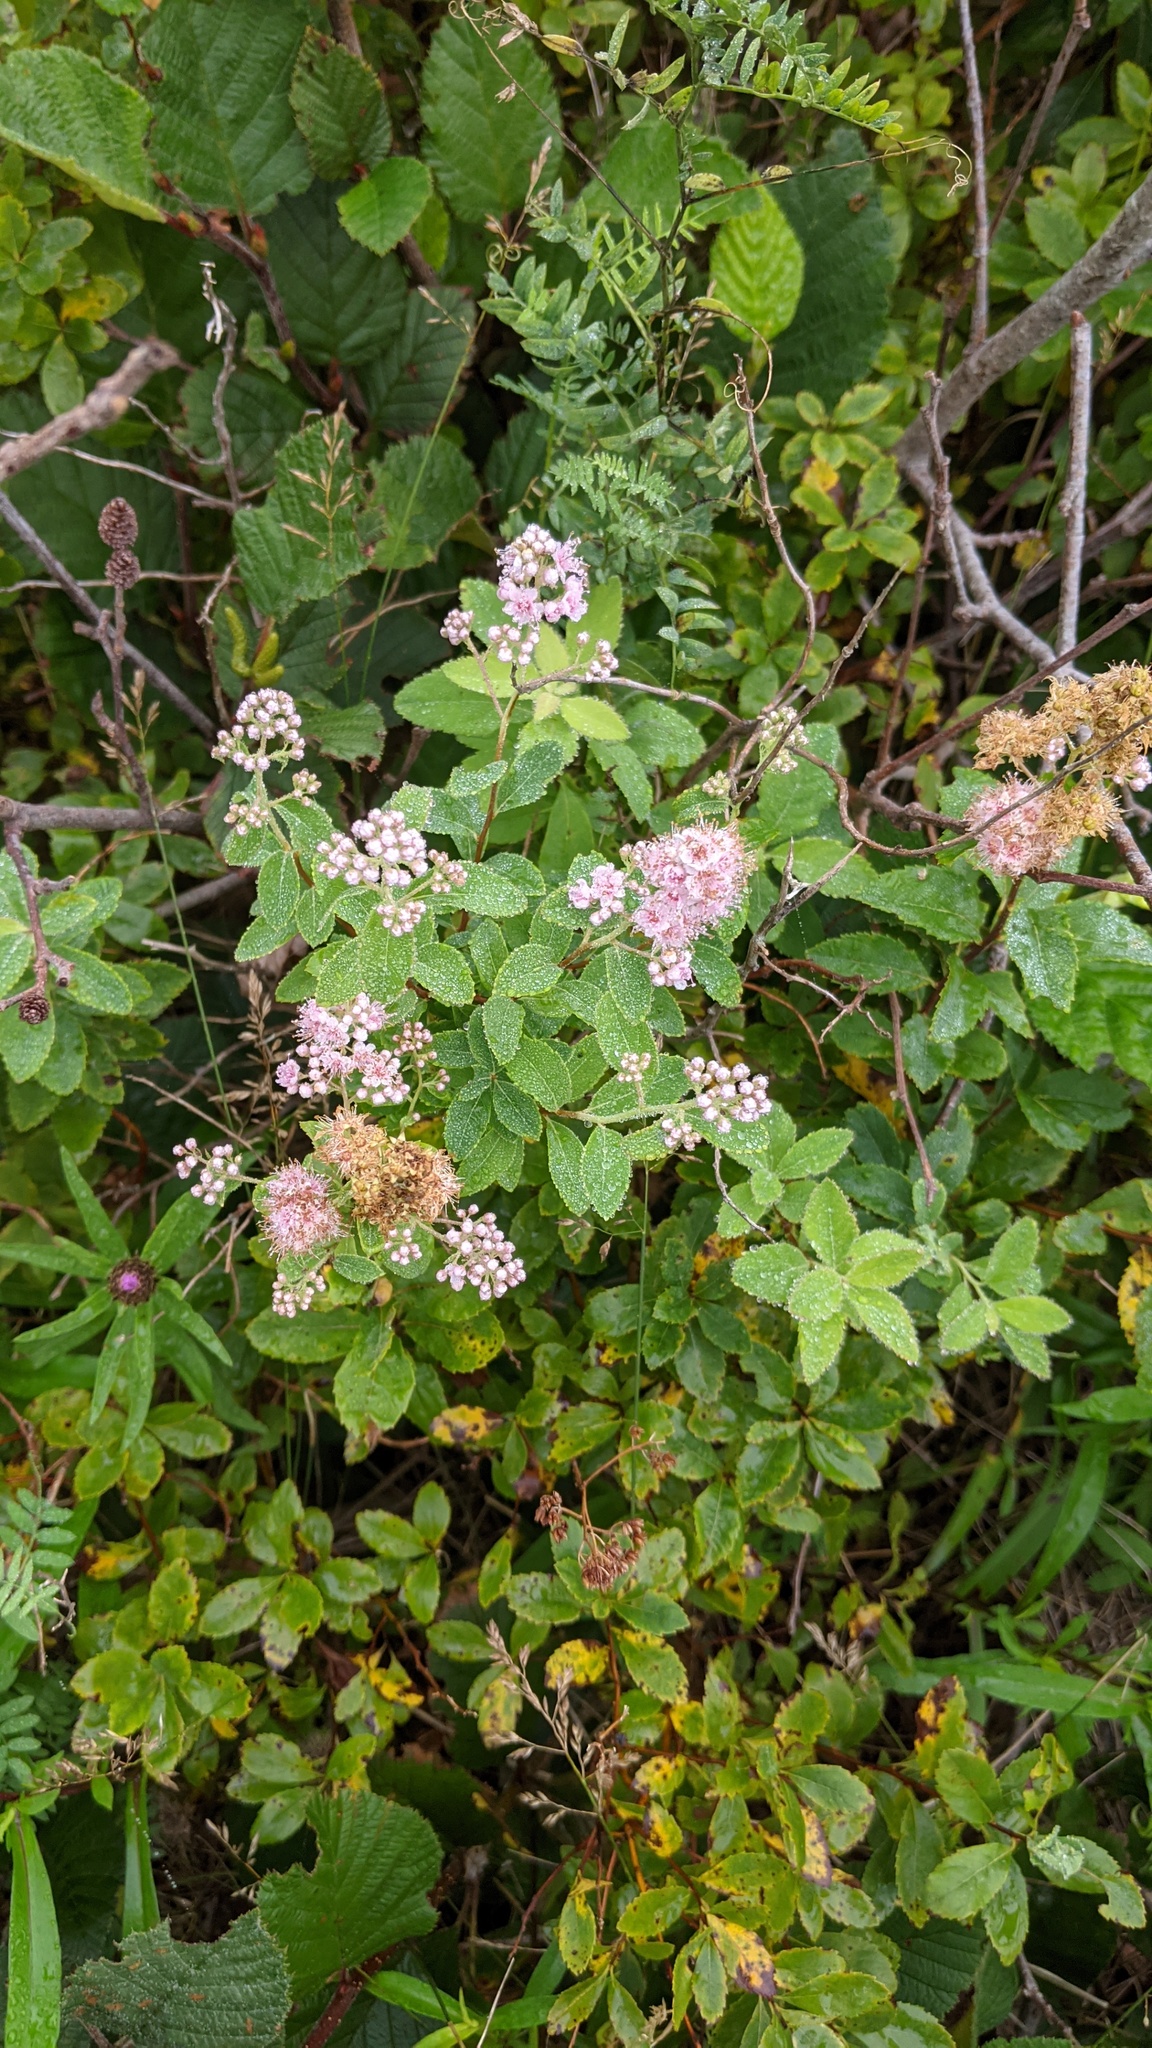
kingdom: Plantae
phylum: Tracheophyta
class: Magnoliopsida
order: Rosales
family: Rosaceae
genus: Spiraea
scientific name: Spiraea alba
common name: Pale bridewort
